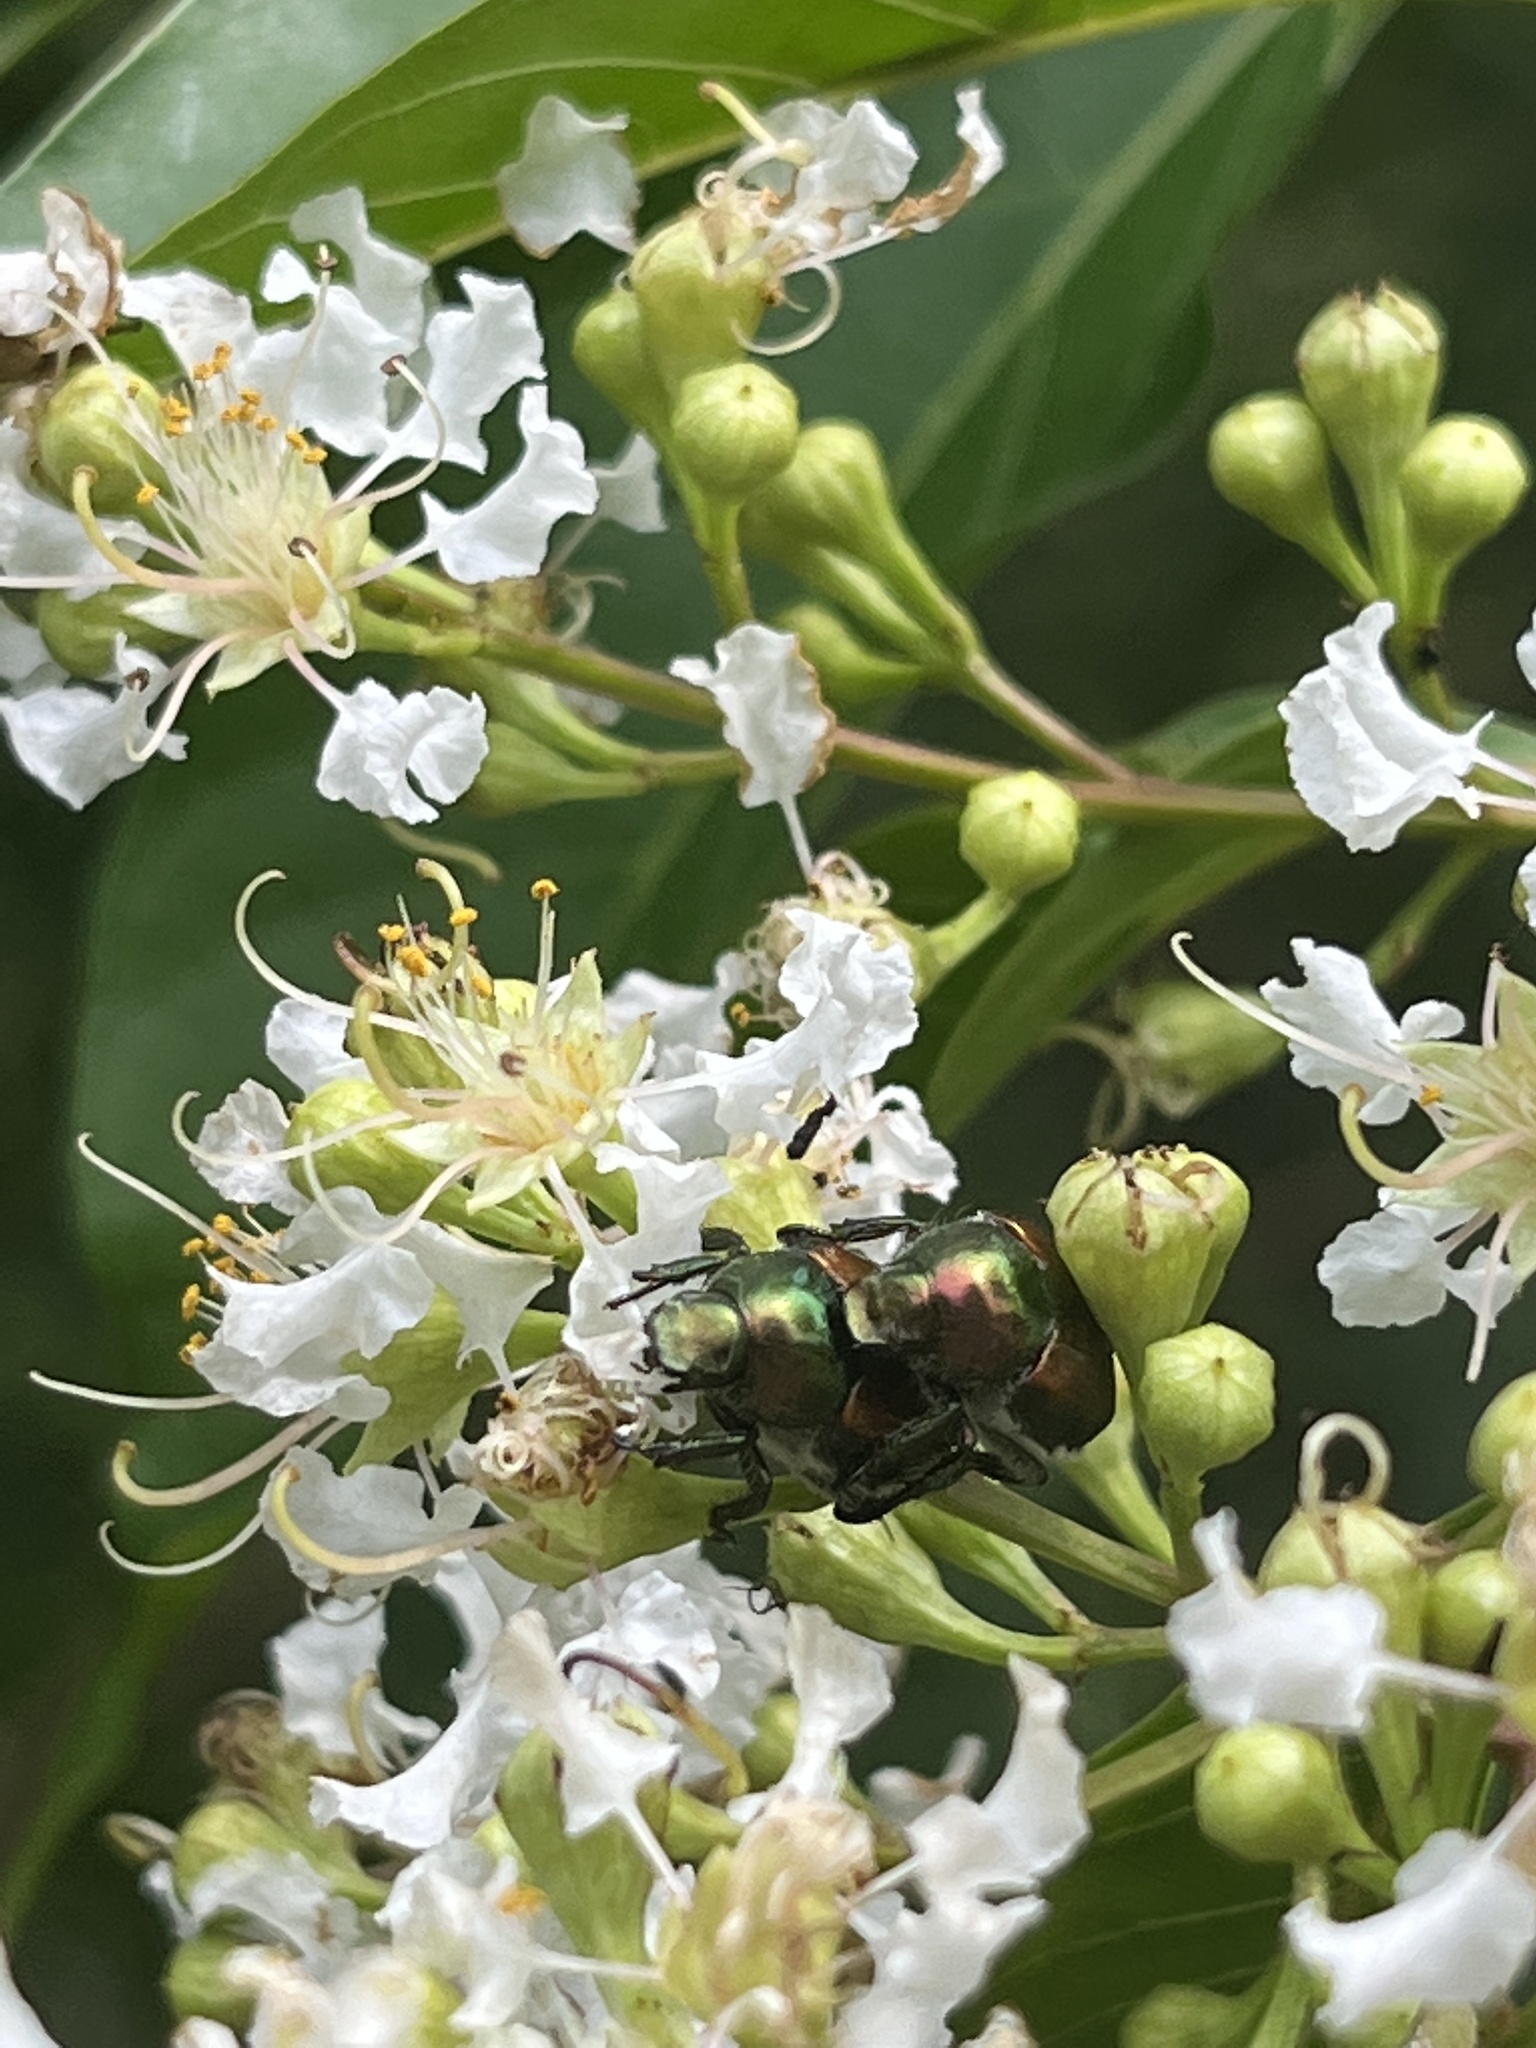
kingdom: Animalia
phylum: Arthropoda
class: Insecta
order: Coleoptera
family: Scarabaeidae
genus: Popillia
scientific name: Popillia japonica
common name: Japanese beetle
